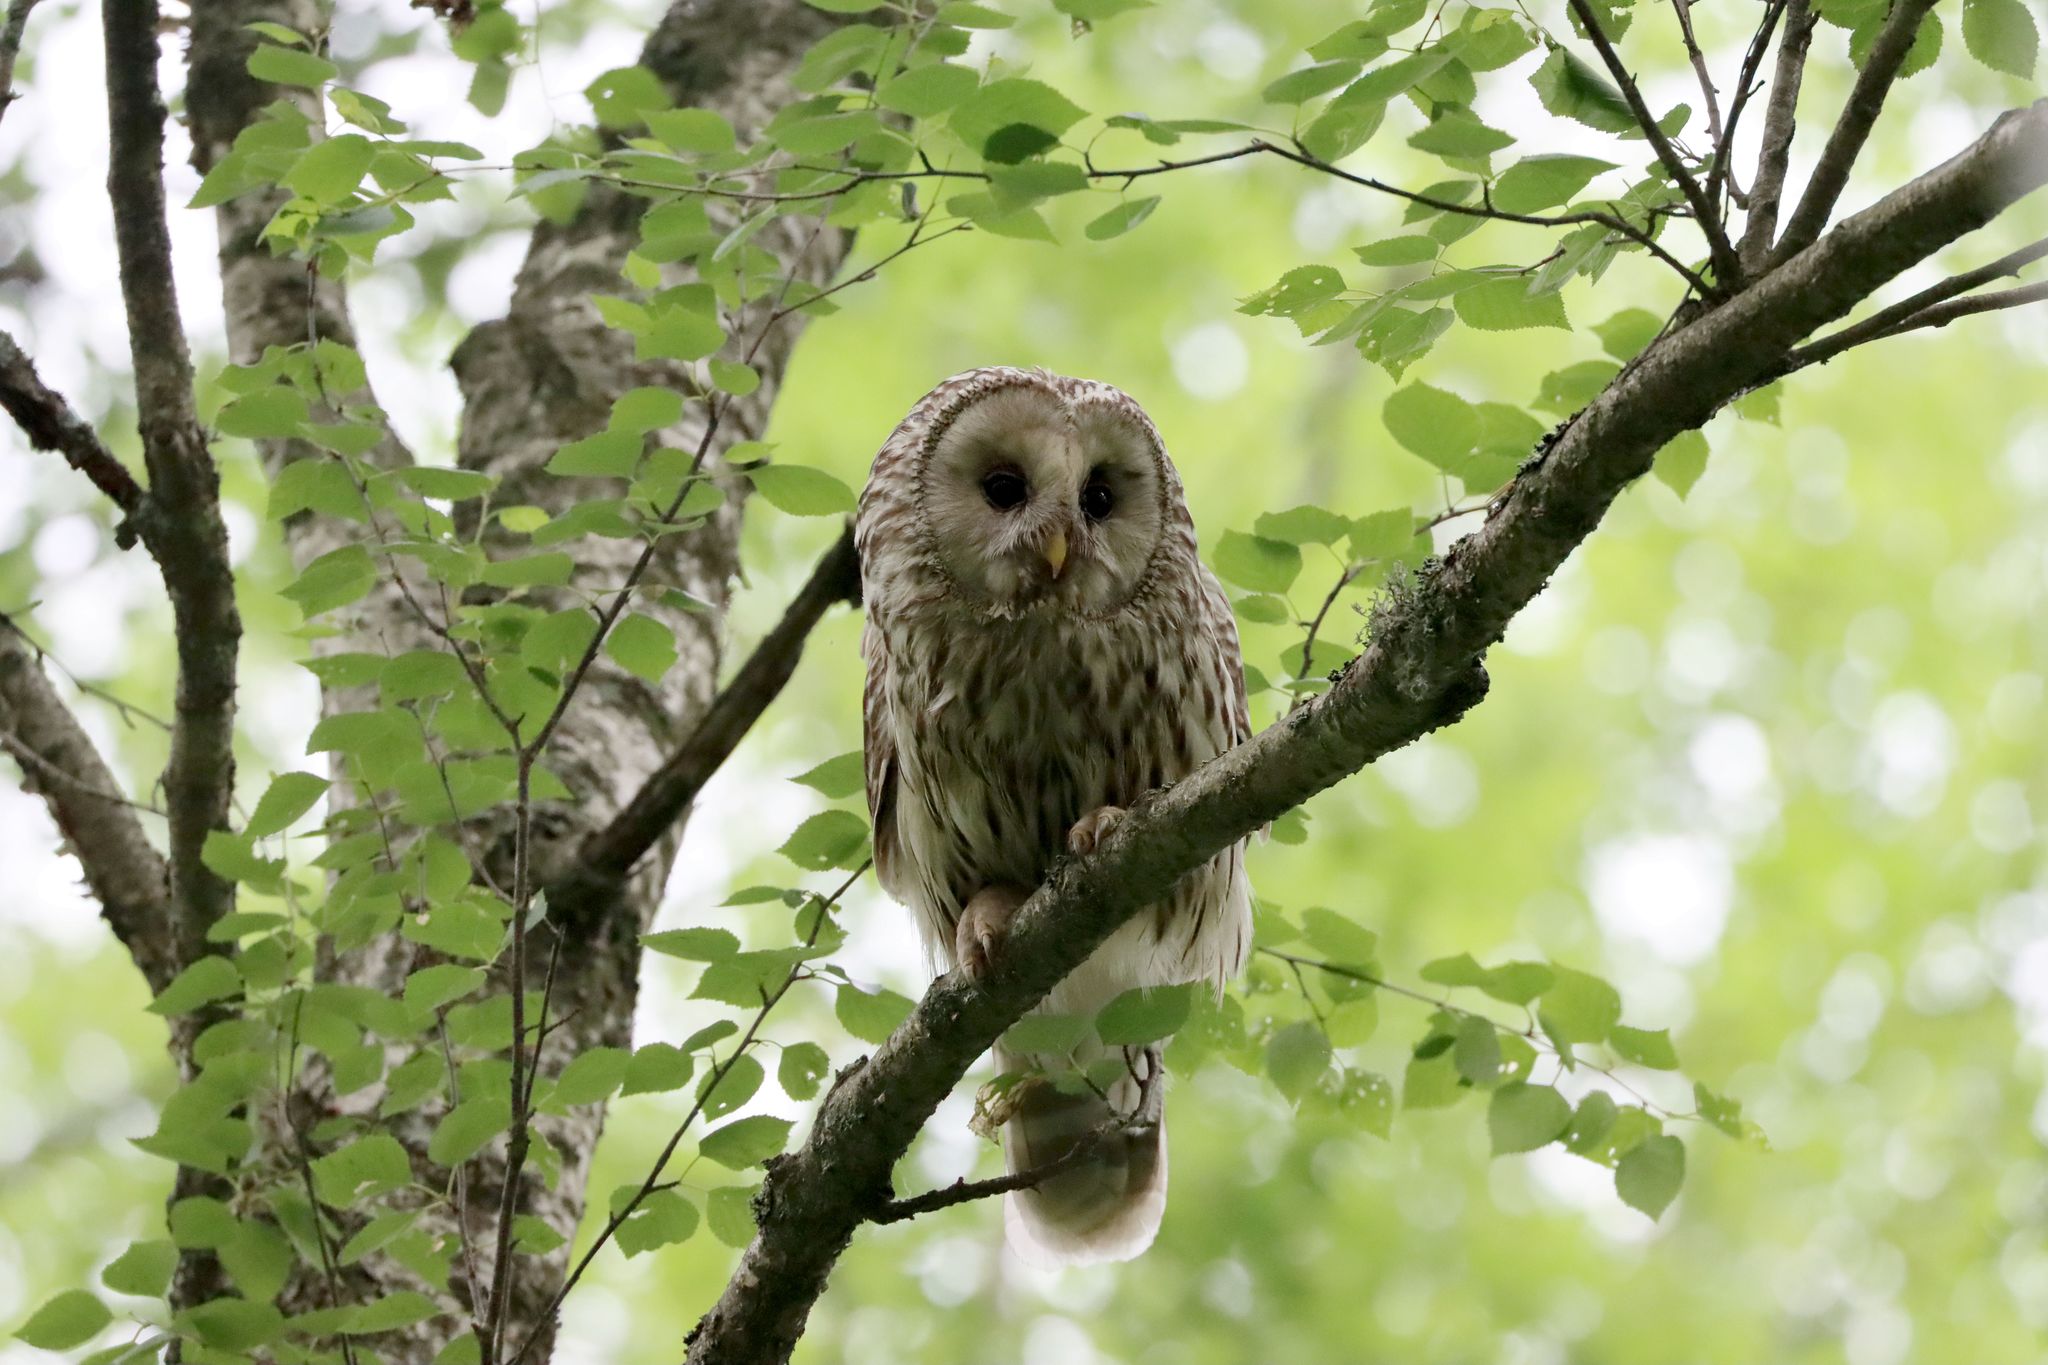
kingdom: Animalia
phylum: Chordata
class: Aves
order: Strigiformes
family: Strigidae
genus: Strix
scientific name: Strix uralensis
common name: Ural owl
